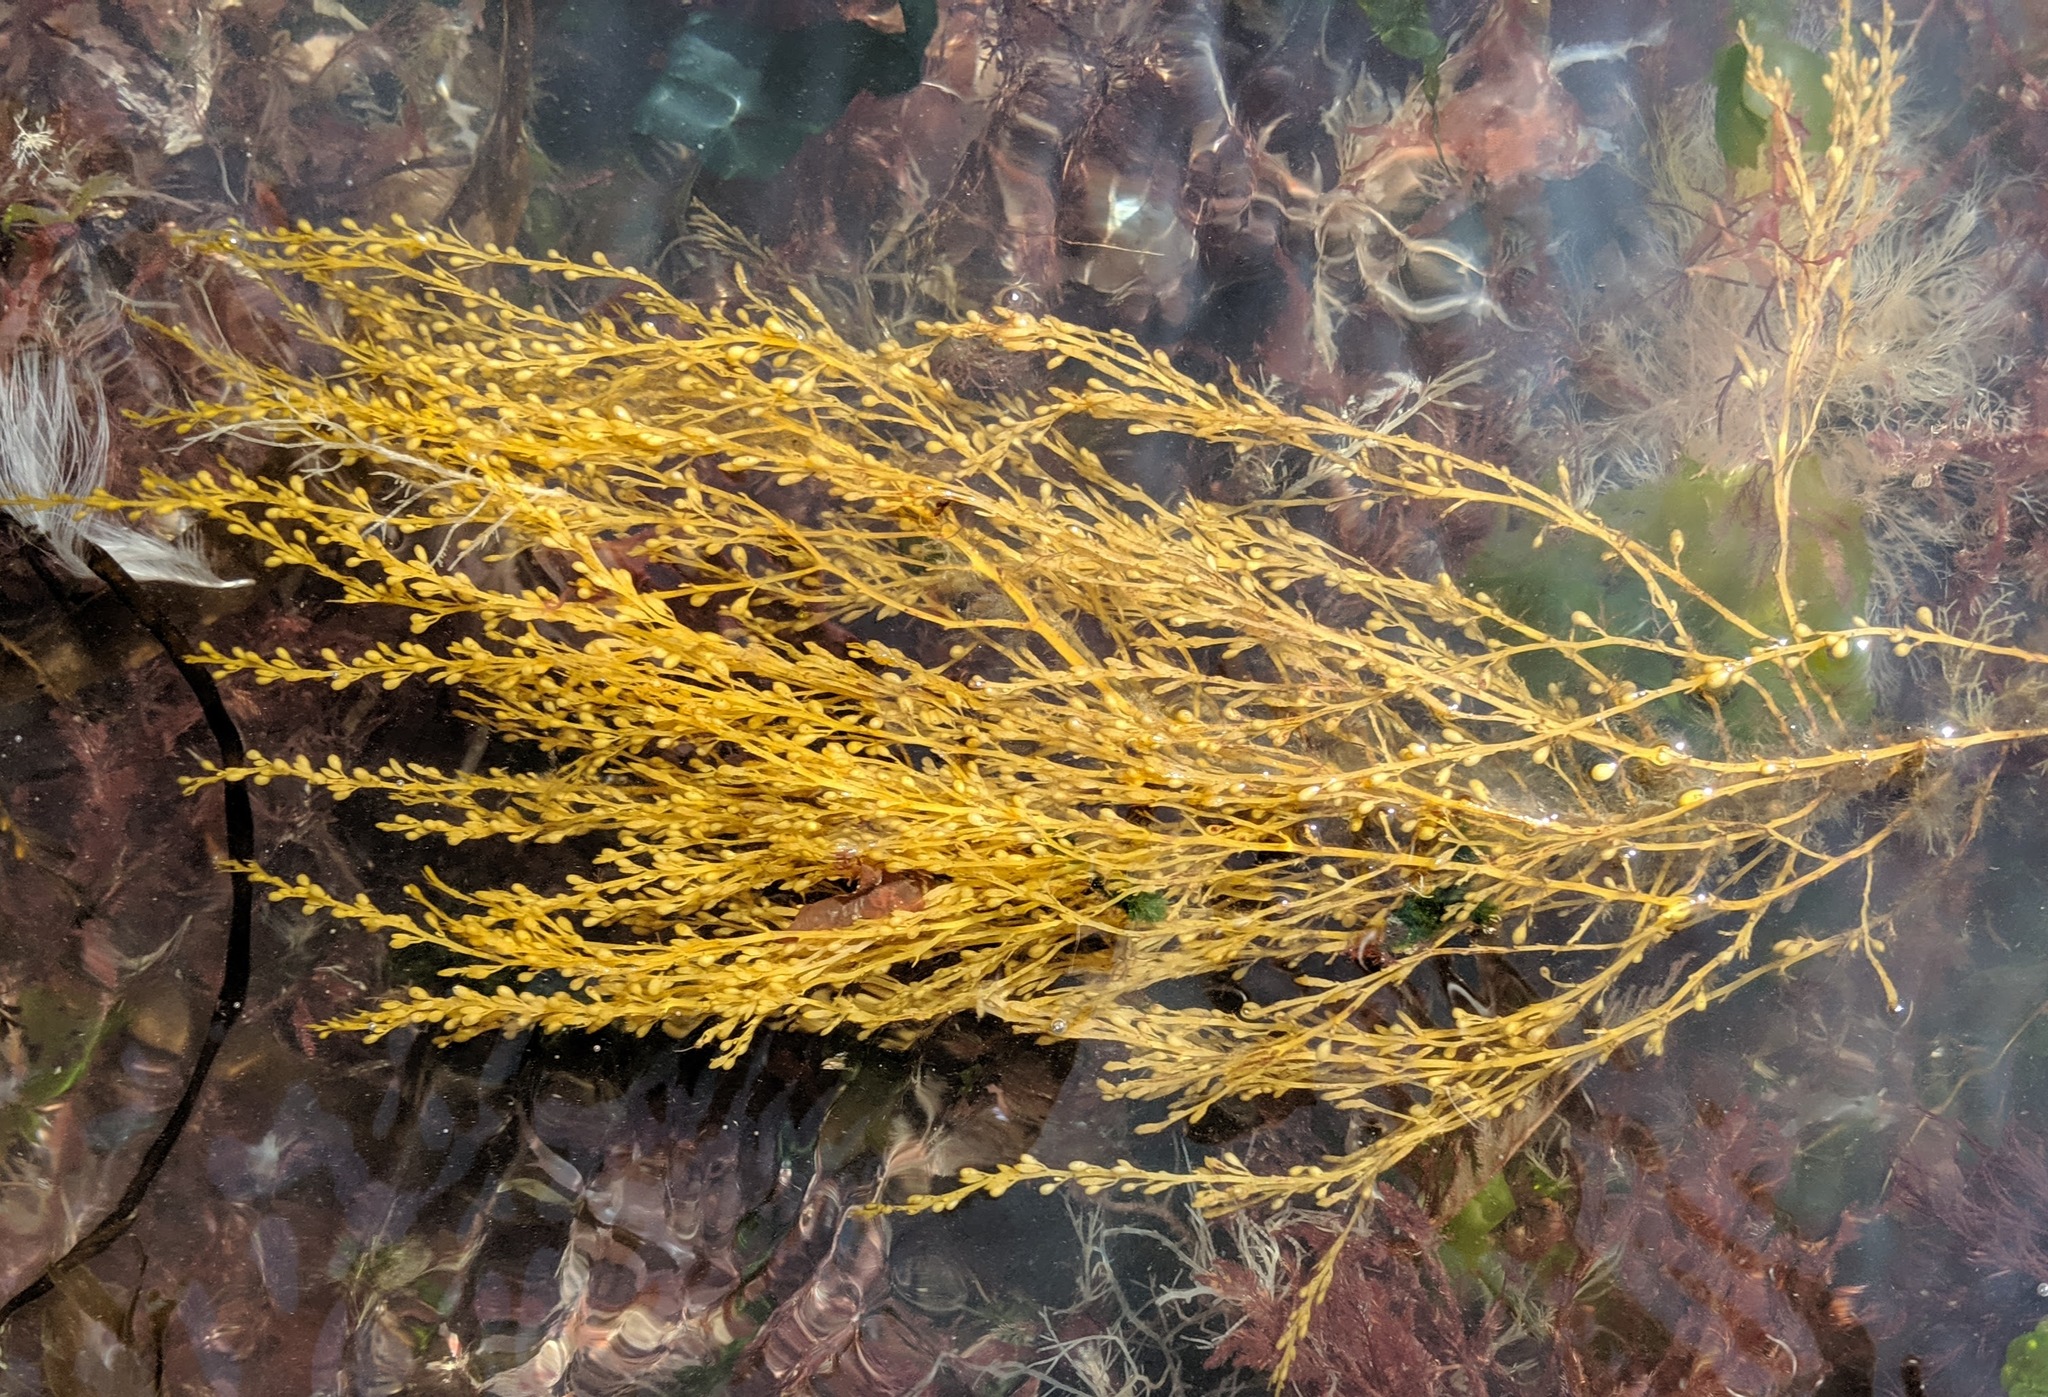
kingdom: Chromista
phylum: Ochrophyta
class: Phaeophyceae
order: Fucales
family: Sargassaceae
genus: Sargassum
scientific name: Sargassum muticum
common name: Japweed
